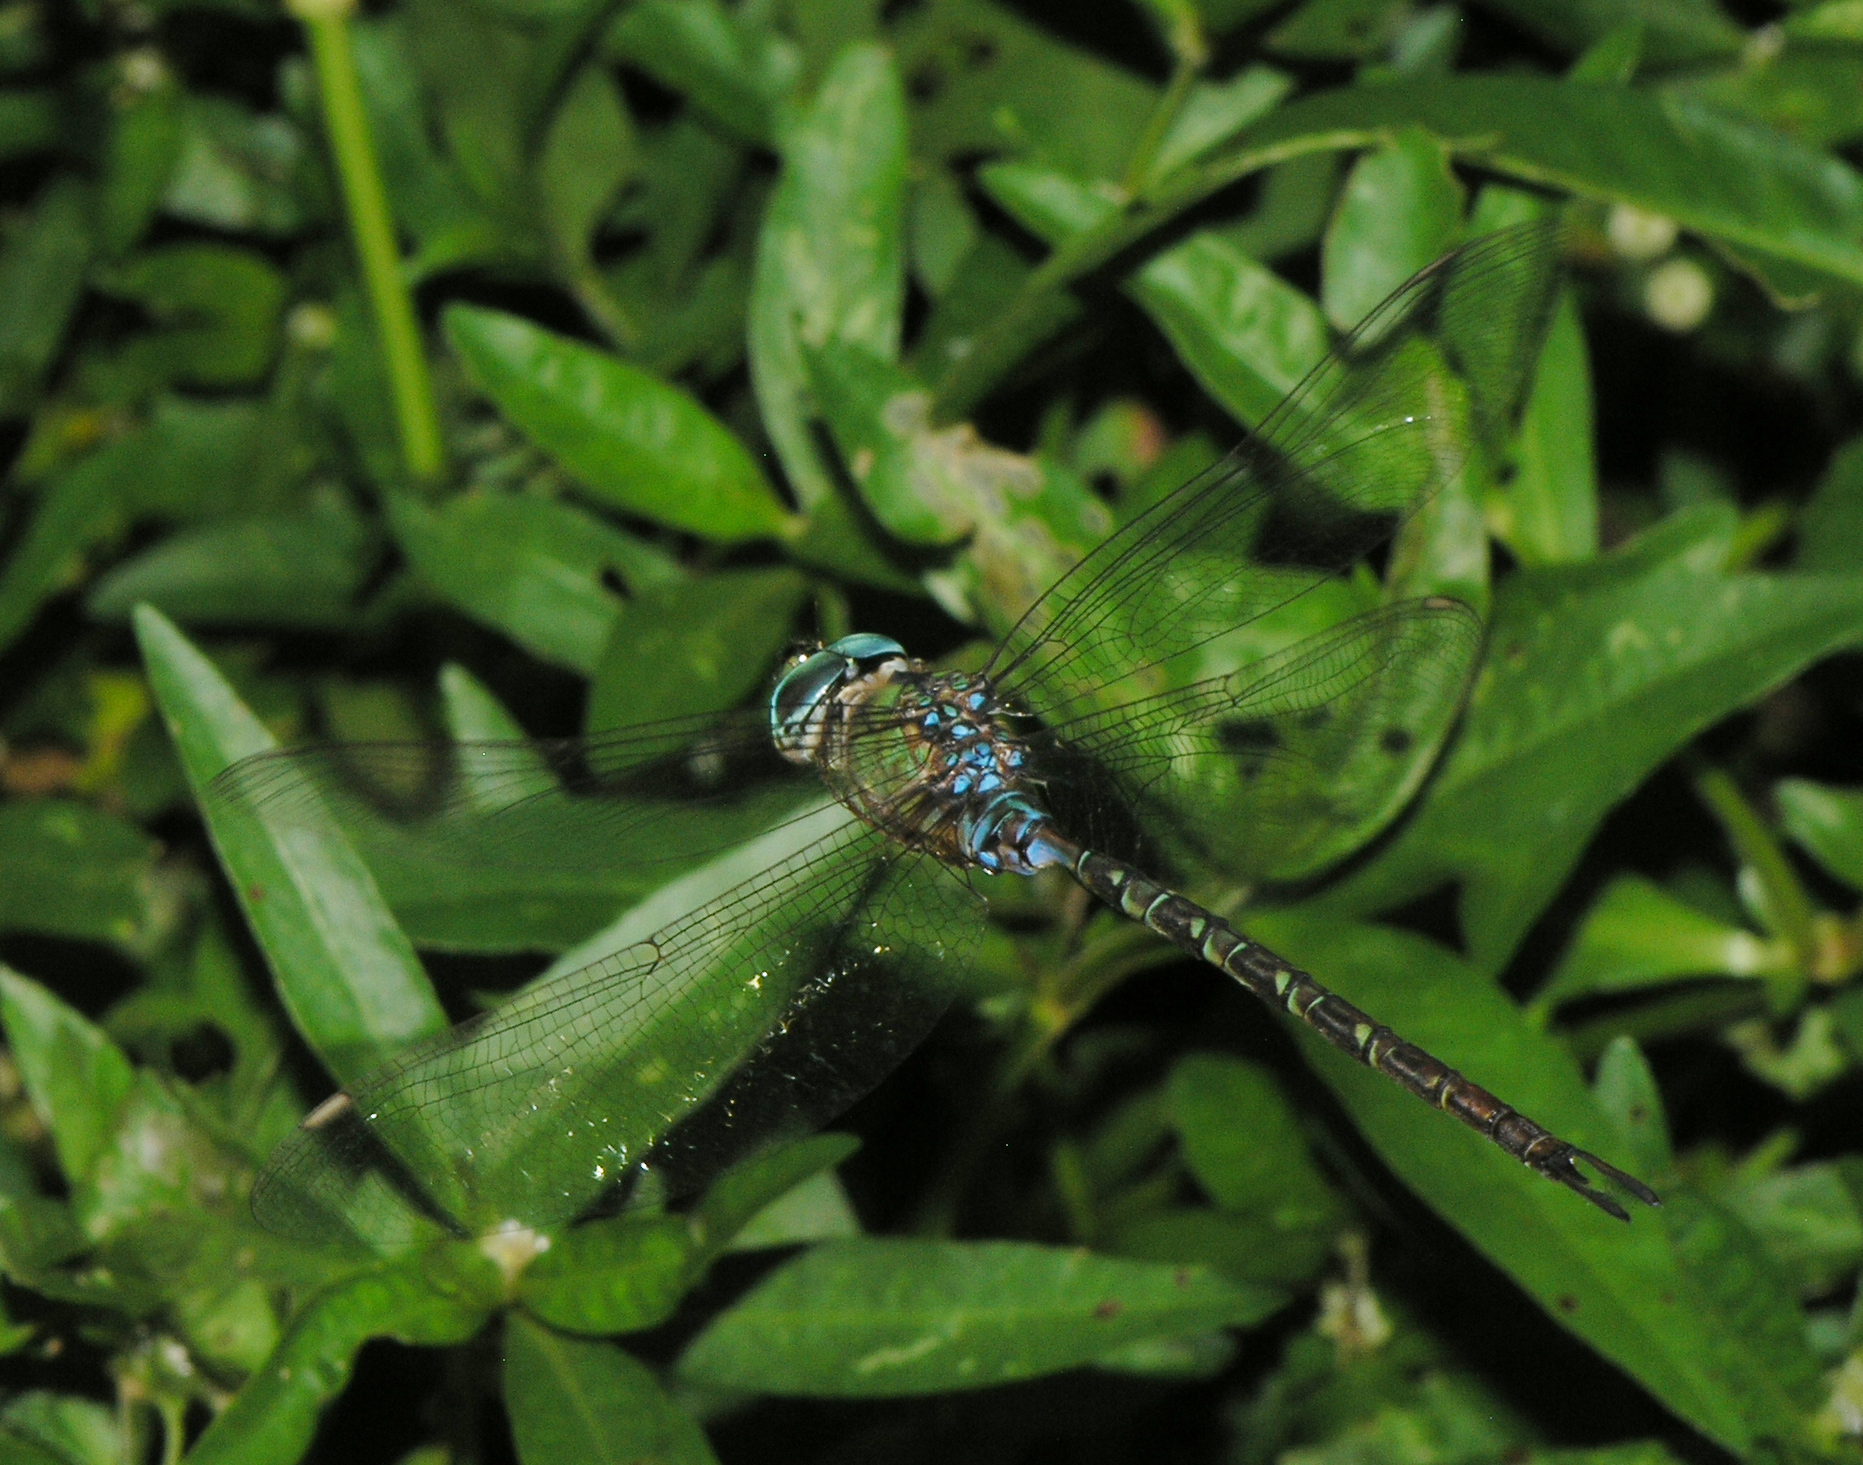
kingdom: Animalia
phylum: Arthropoda
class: Insecta
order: Odonata
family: Aeshnidae
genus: Gynacantha
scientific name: Gynacantha subinterrupta
